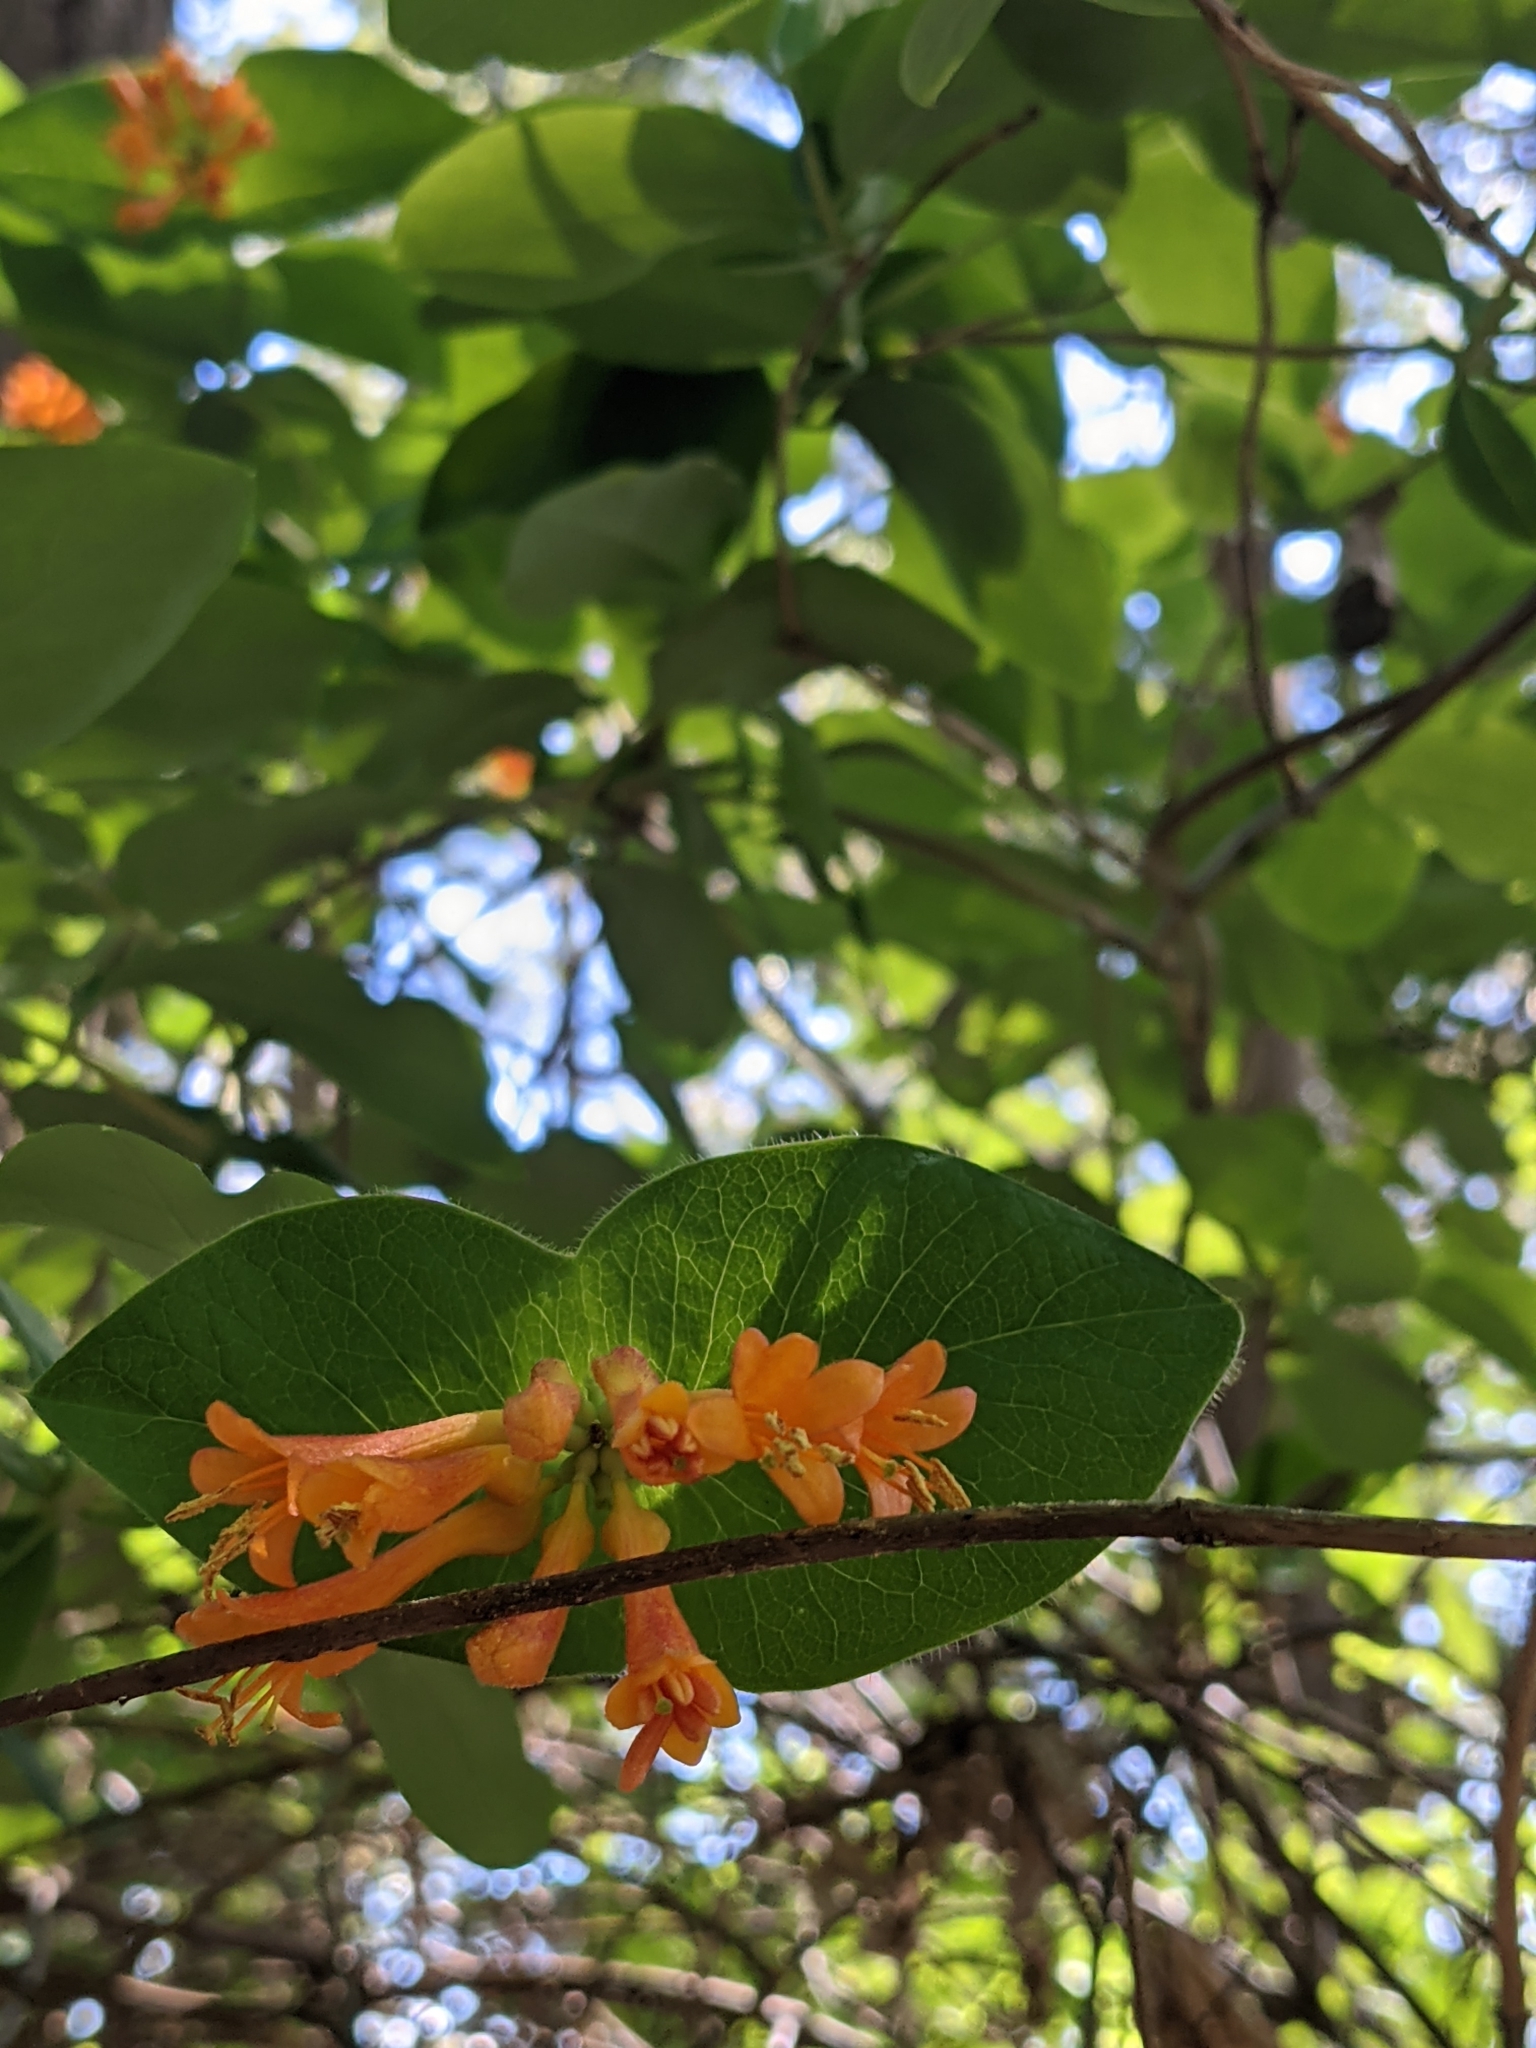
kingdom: Plantae
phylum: Tracheophyta
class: Magnoliopsida
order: Dipsacales
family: Caprifoliaceae
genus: Lonicera
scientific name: Lonicera ciliosa
